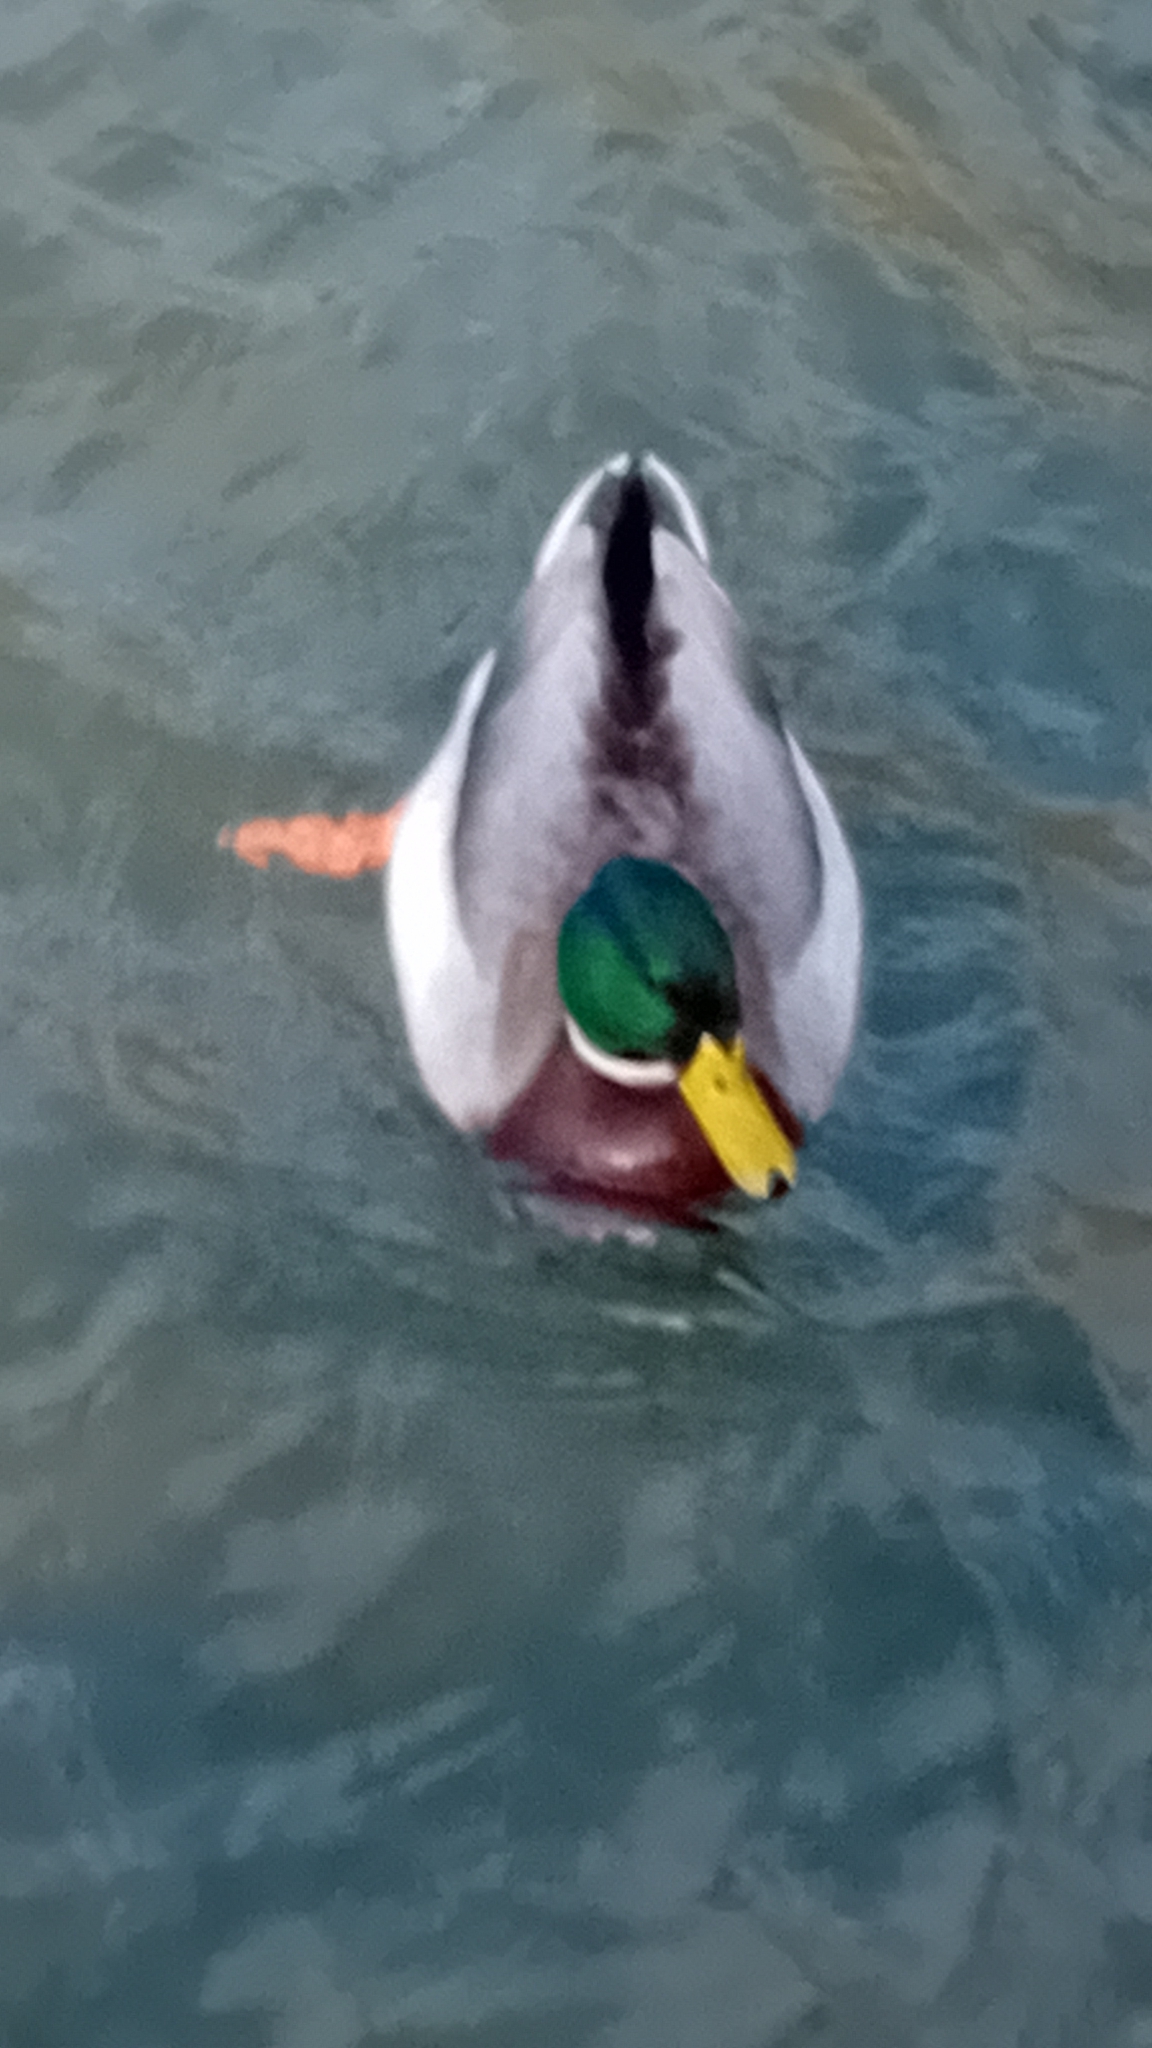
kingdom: Animalia
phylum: Chordata
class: Aves
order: Anseriformes
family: Anatidae
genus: Anas
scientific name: Anas platyrhynchos
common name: Mallard
